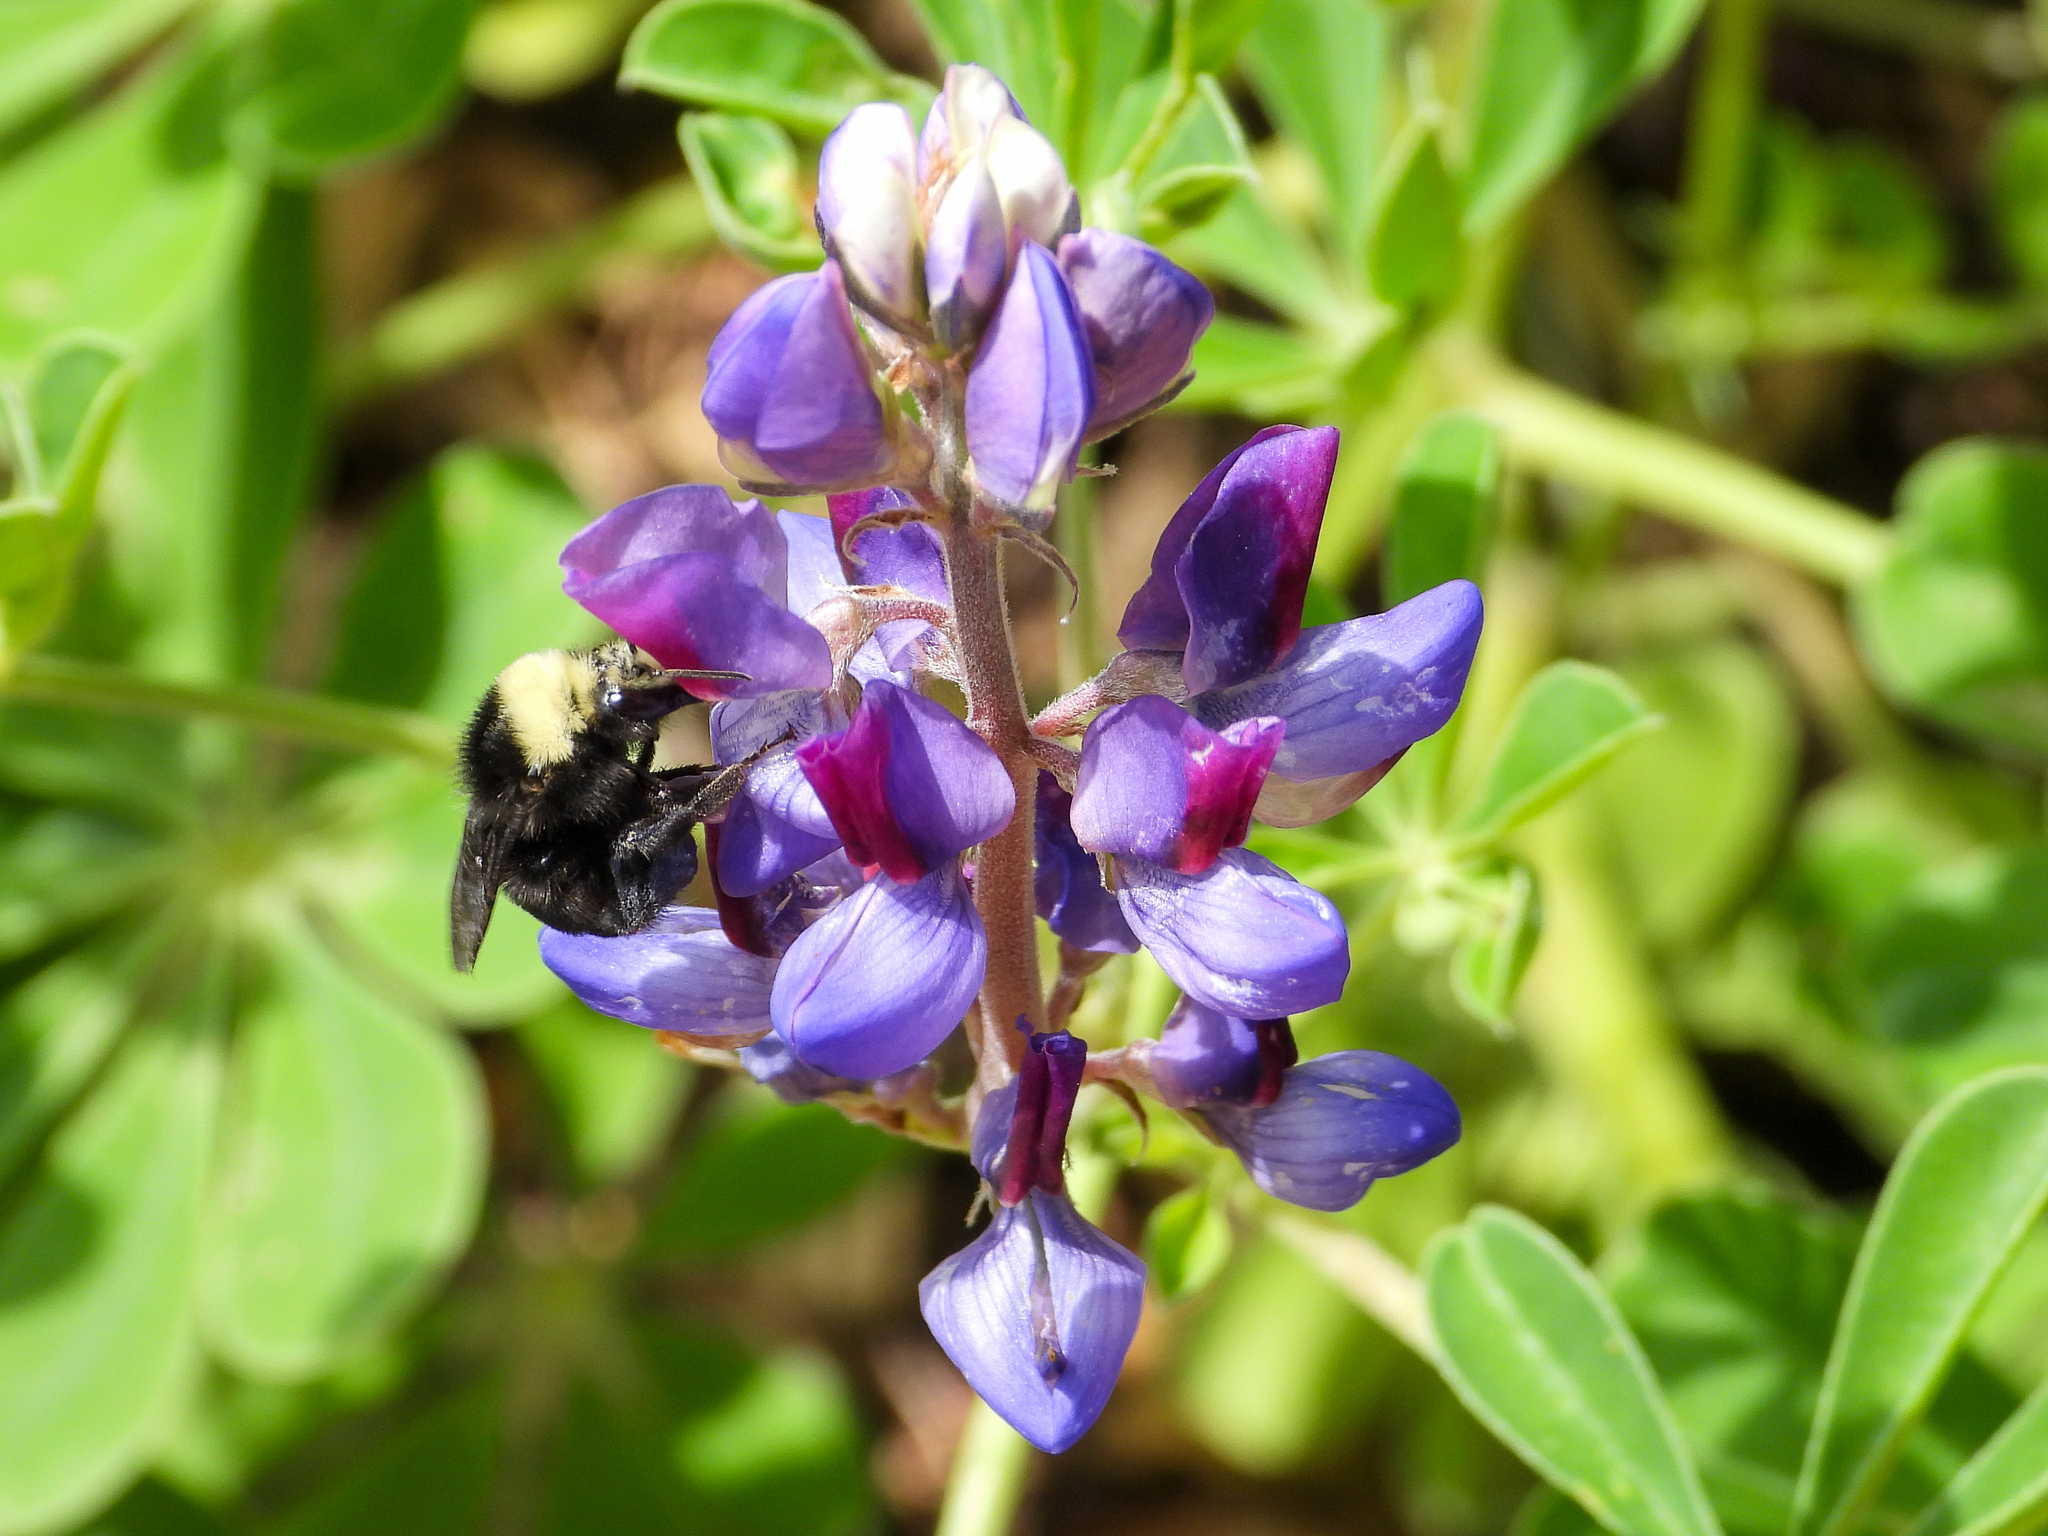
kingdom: Animalia
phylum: Arthropoda
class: Insecta
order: Hymenoptera
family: Apidae
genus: Bombus
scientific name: Bombus vosnesenskii
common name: Vosnesensky bumble bee
